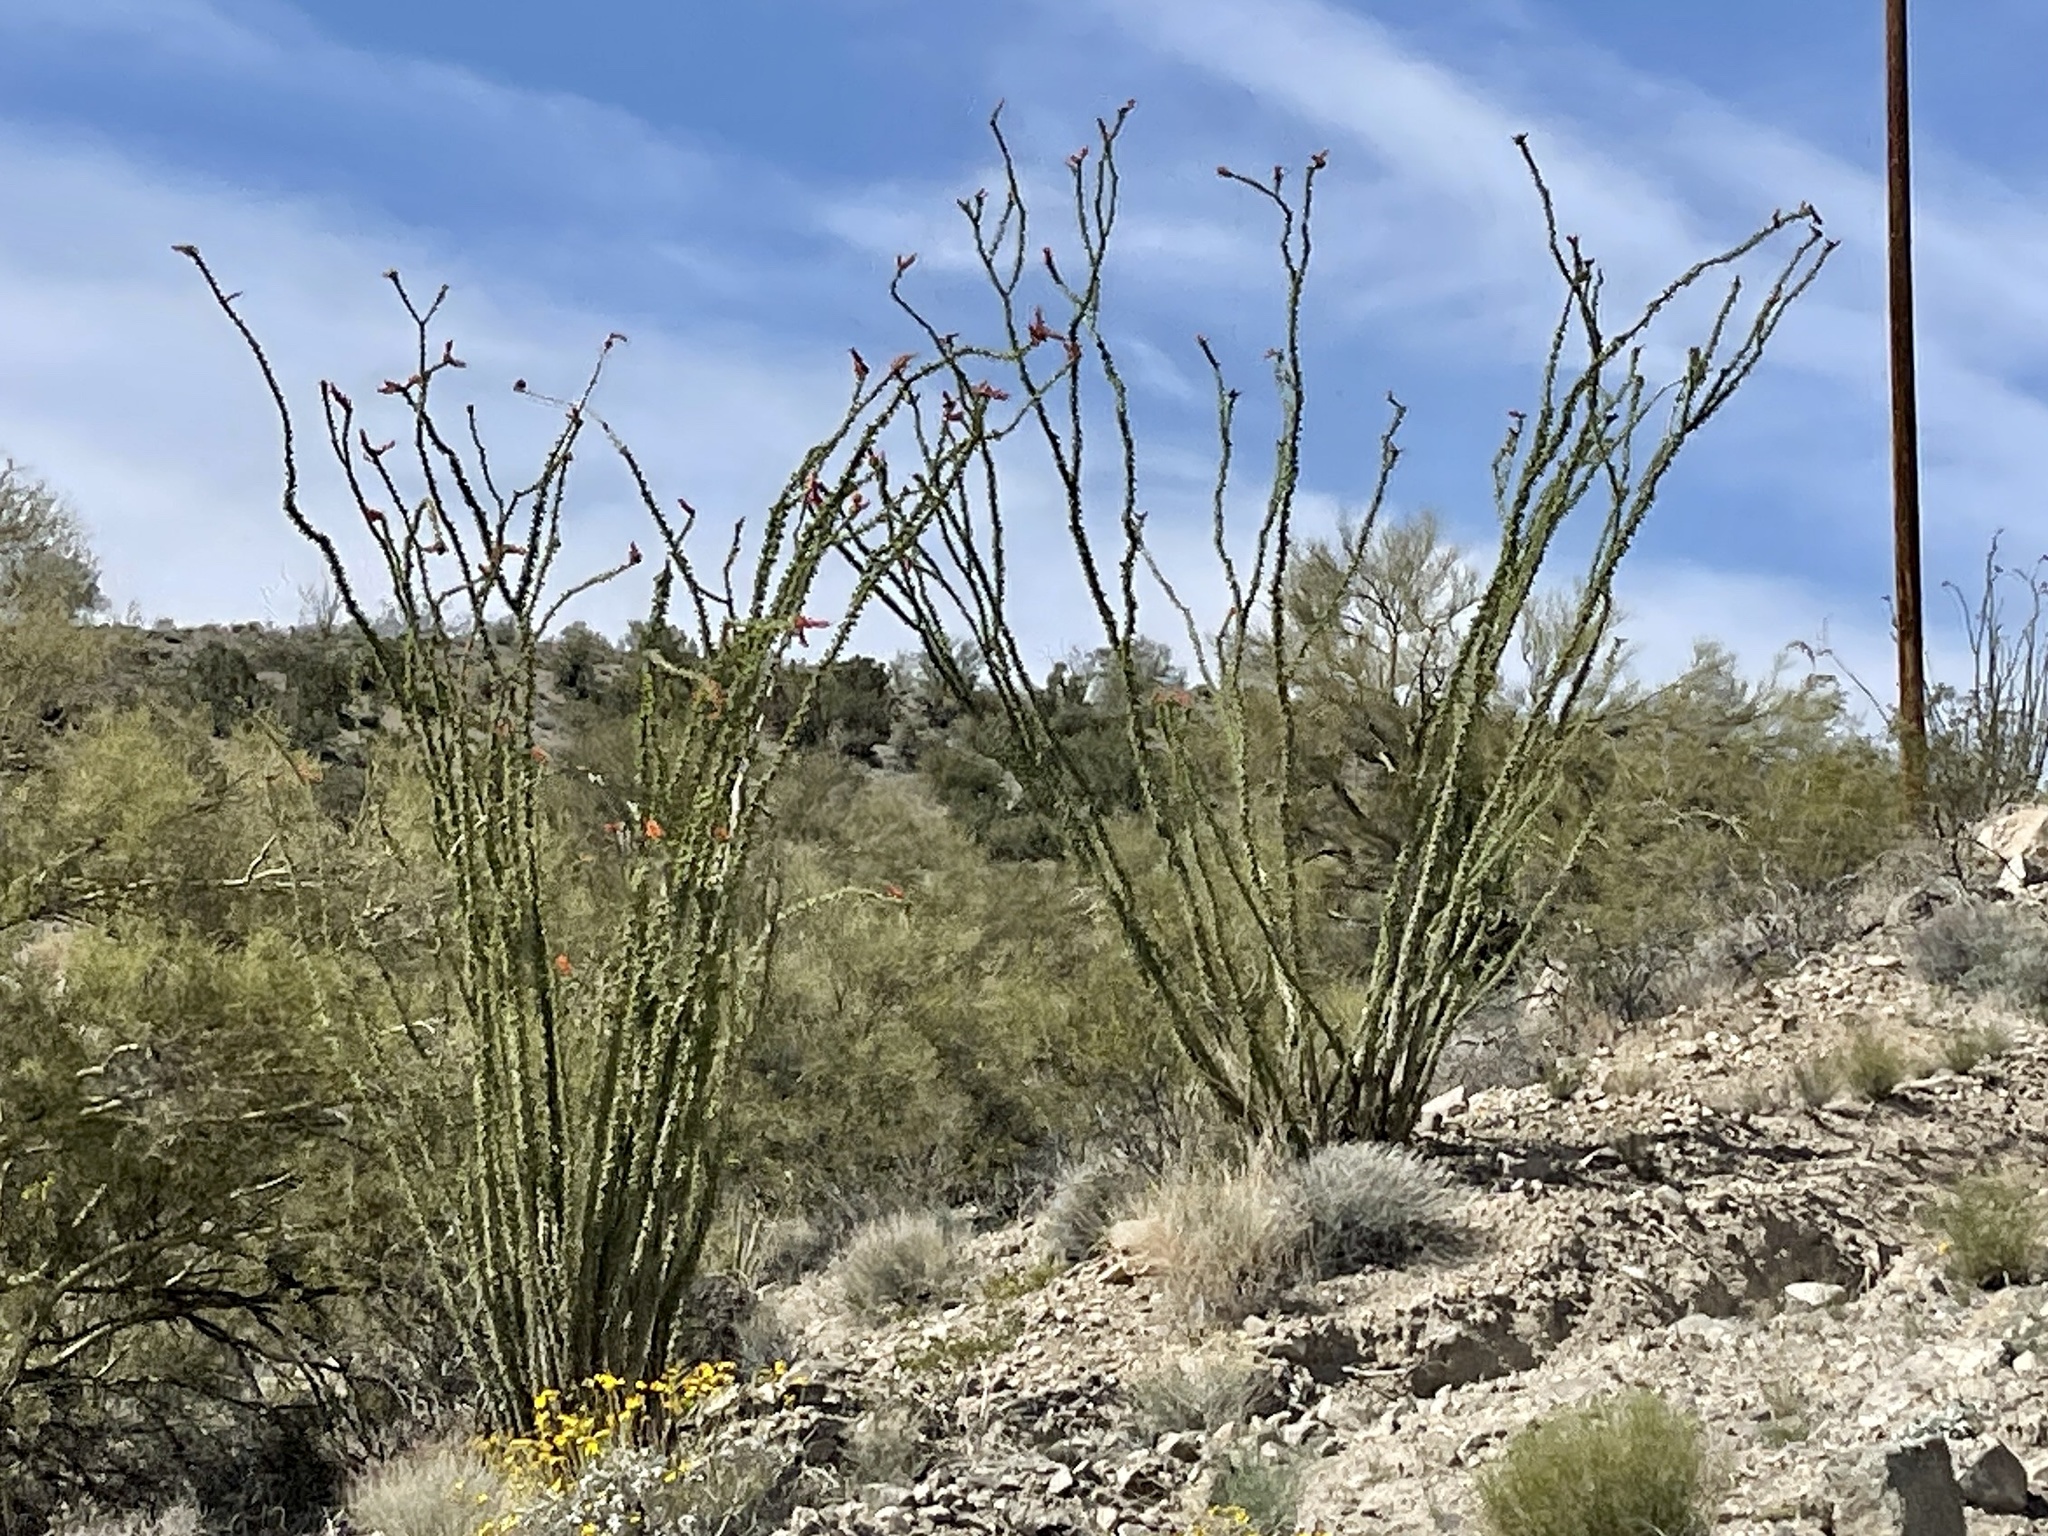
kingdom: Plantae
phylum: Tracheophyta
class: Magnoliopsida
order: Ericales
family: Fouquieriaceae
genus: Fouquieria
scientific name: Fouquieria splendens
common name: Vine-cactus
